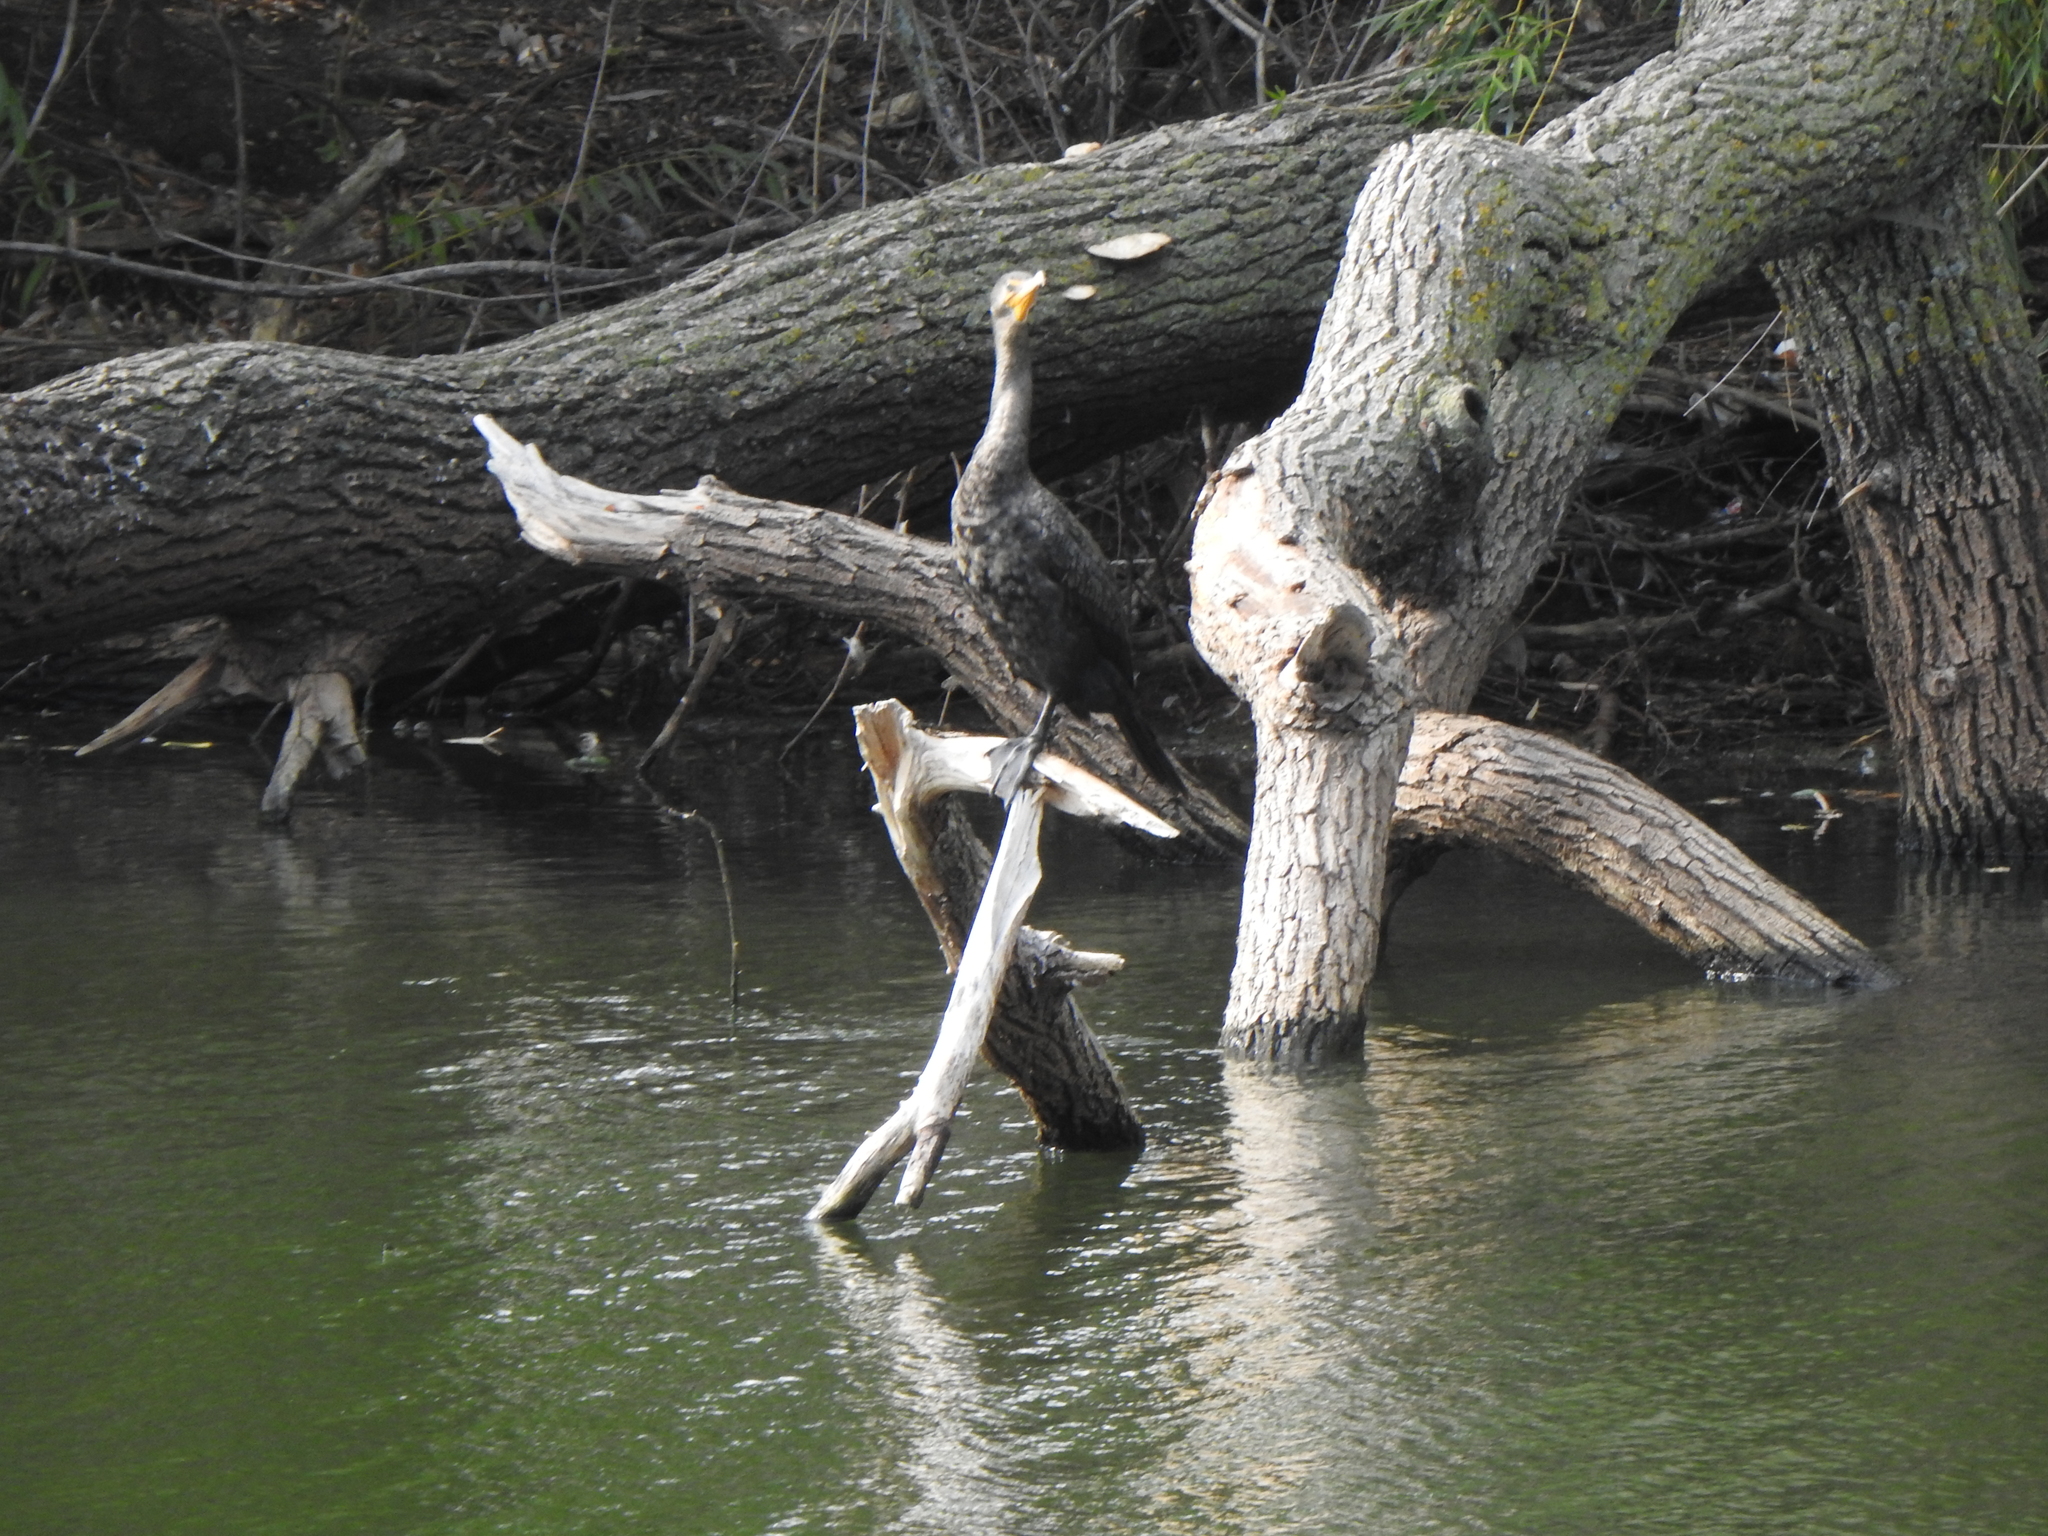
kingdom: Animalia
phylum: Chordata
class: Aves
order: Suliformes
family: Phalacrocoracidae
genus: Phalacrocorax
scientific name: Phalacrocorax auritus
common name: Double-crested cormorant
